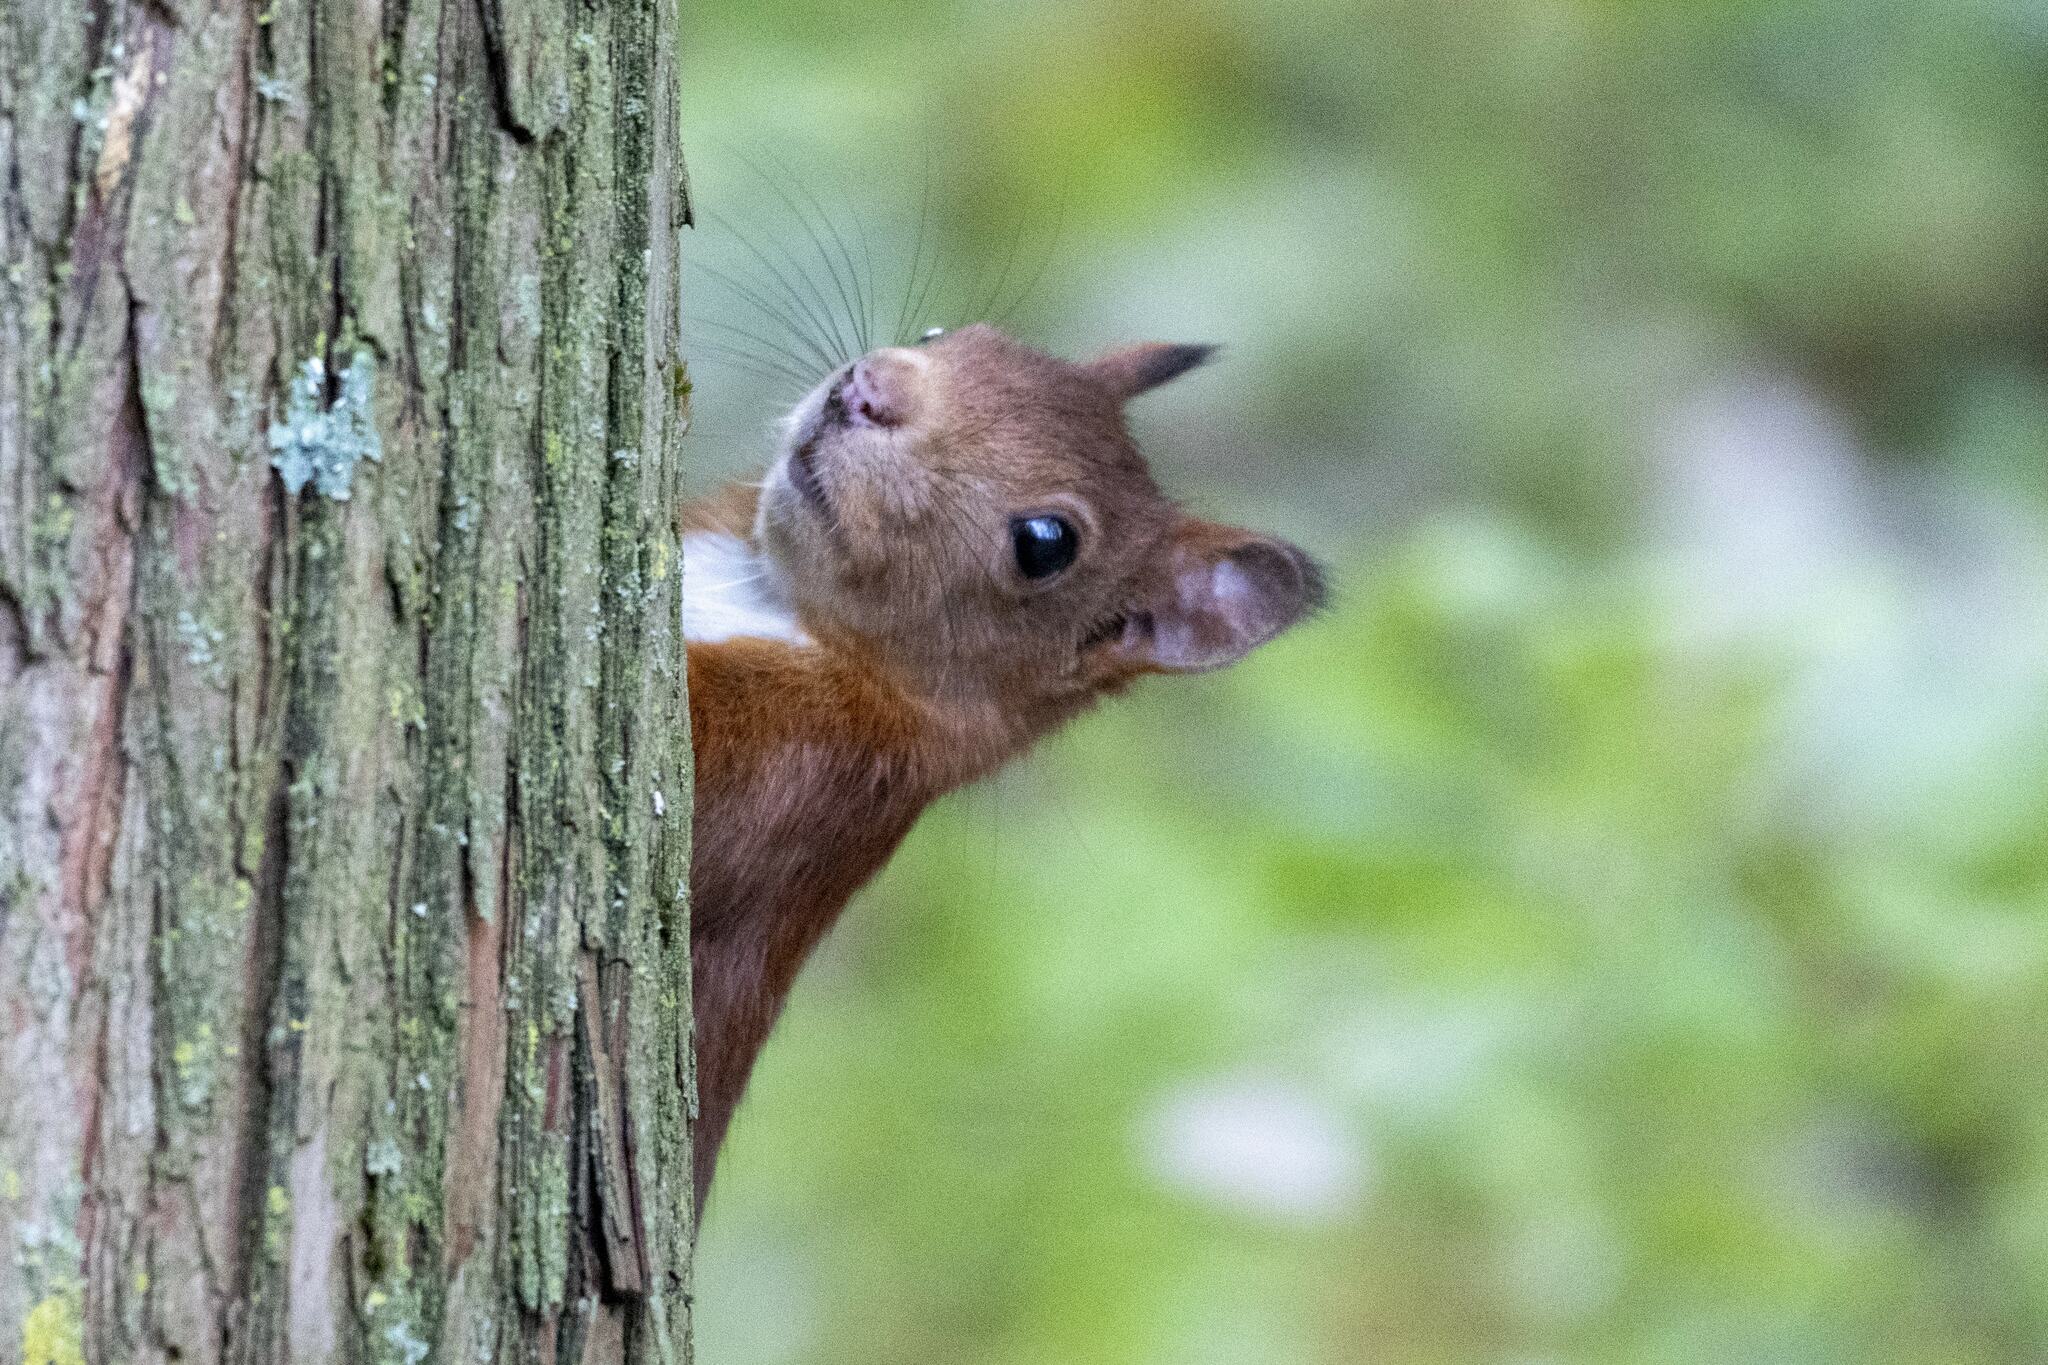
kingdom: Animalia
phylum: Chordata
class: Mammalia
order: Rodentia
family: Sciuridae
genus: Sciurus
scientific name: Sciurus vulgaris
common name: Eurasian red squirrel
